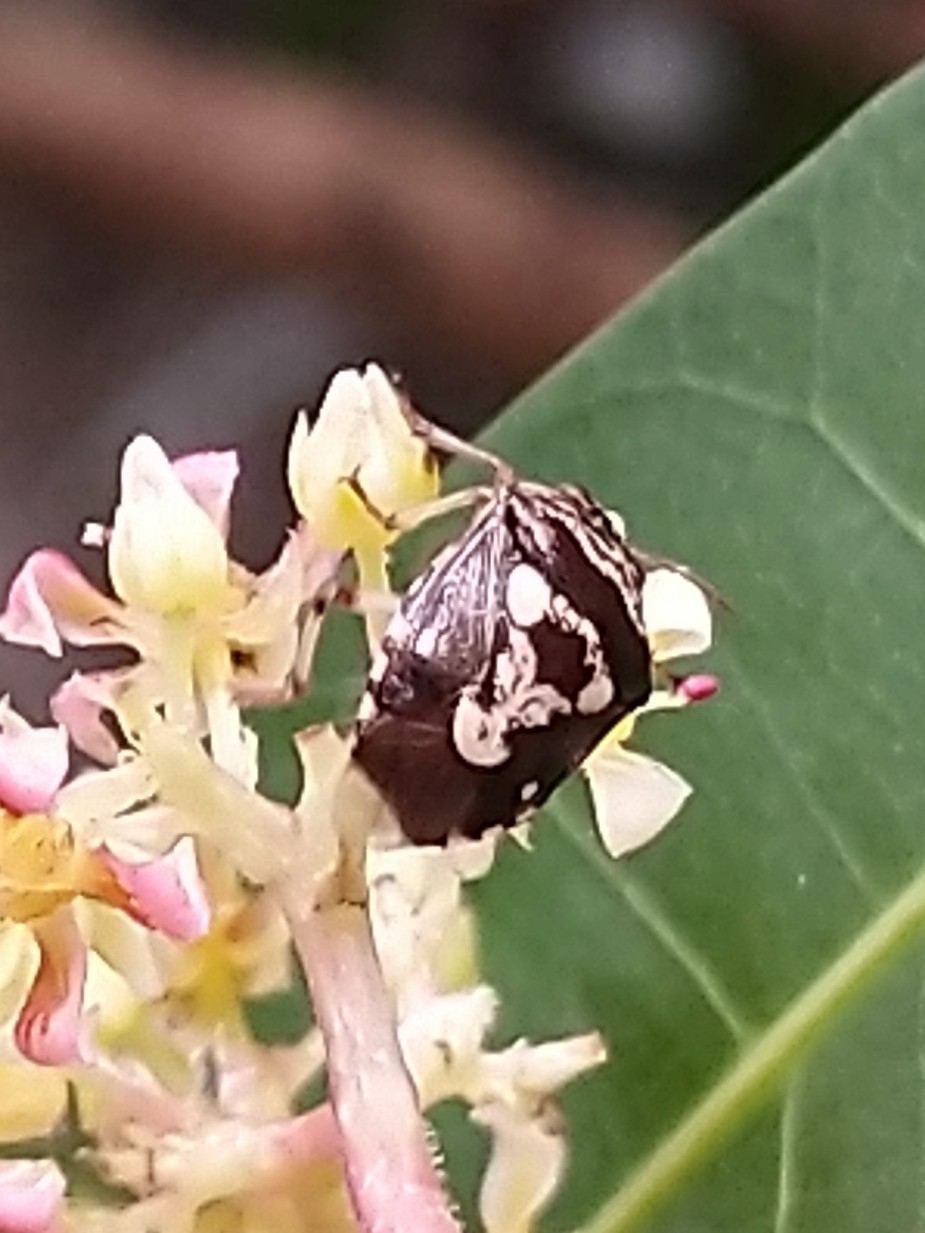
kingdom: Animalia
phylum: Arthropoda
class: Insecta
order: Hemiptera
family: Pentatomidae
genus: Menida
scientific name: Menida formosa
